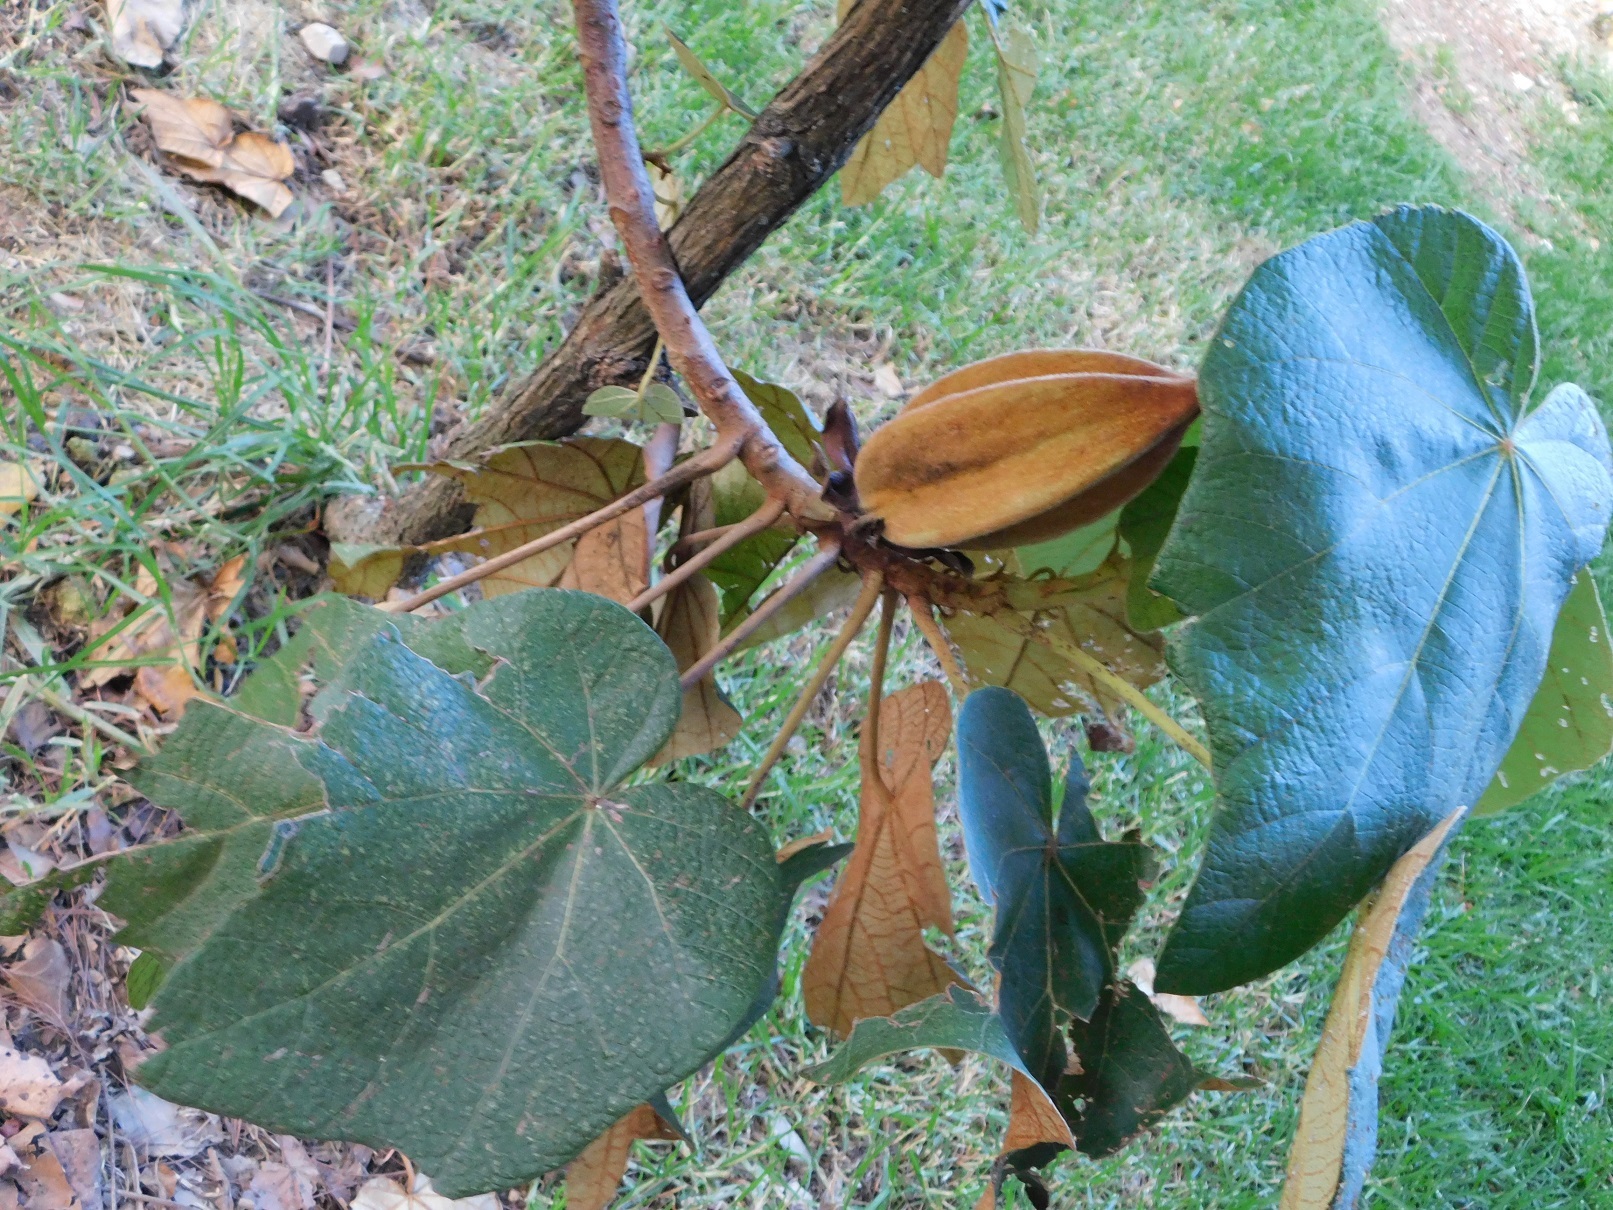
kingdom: Plantae
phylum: Tracheophyta
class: Magnoliopsida
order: Malvales
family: Malvaceae
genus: Chiranthodendron
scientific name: Chiranthodendron pentadactylon
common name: Mexican-hat-plant
